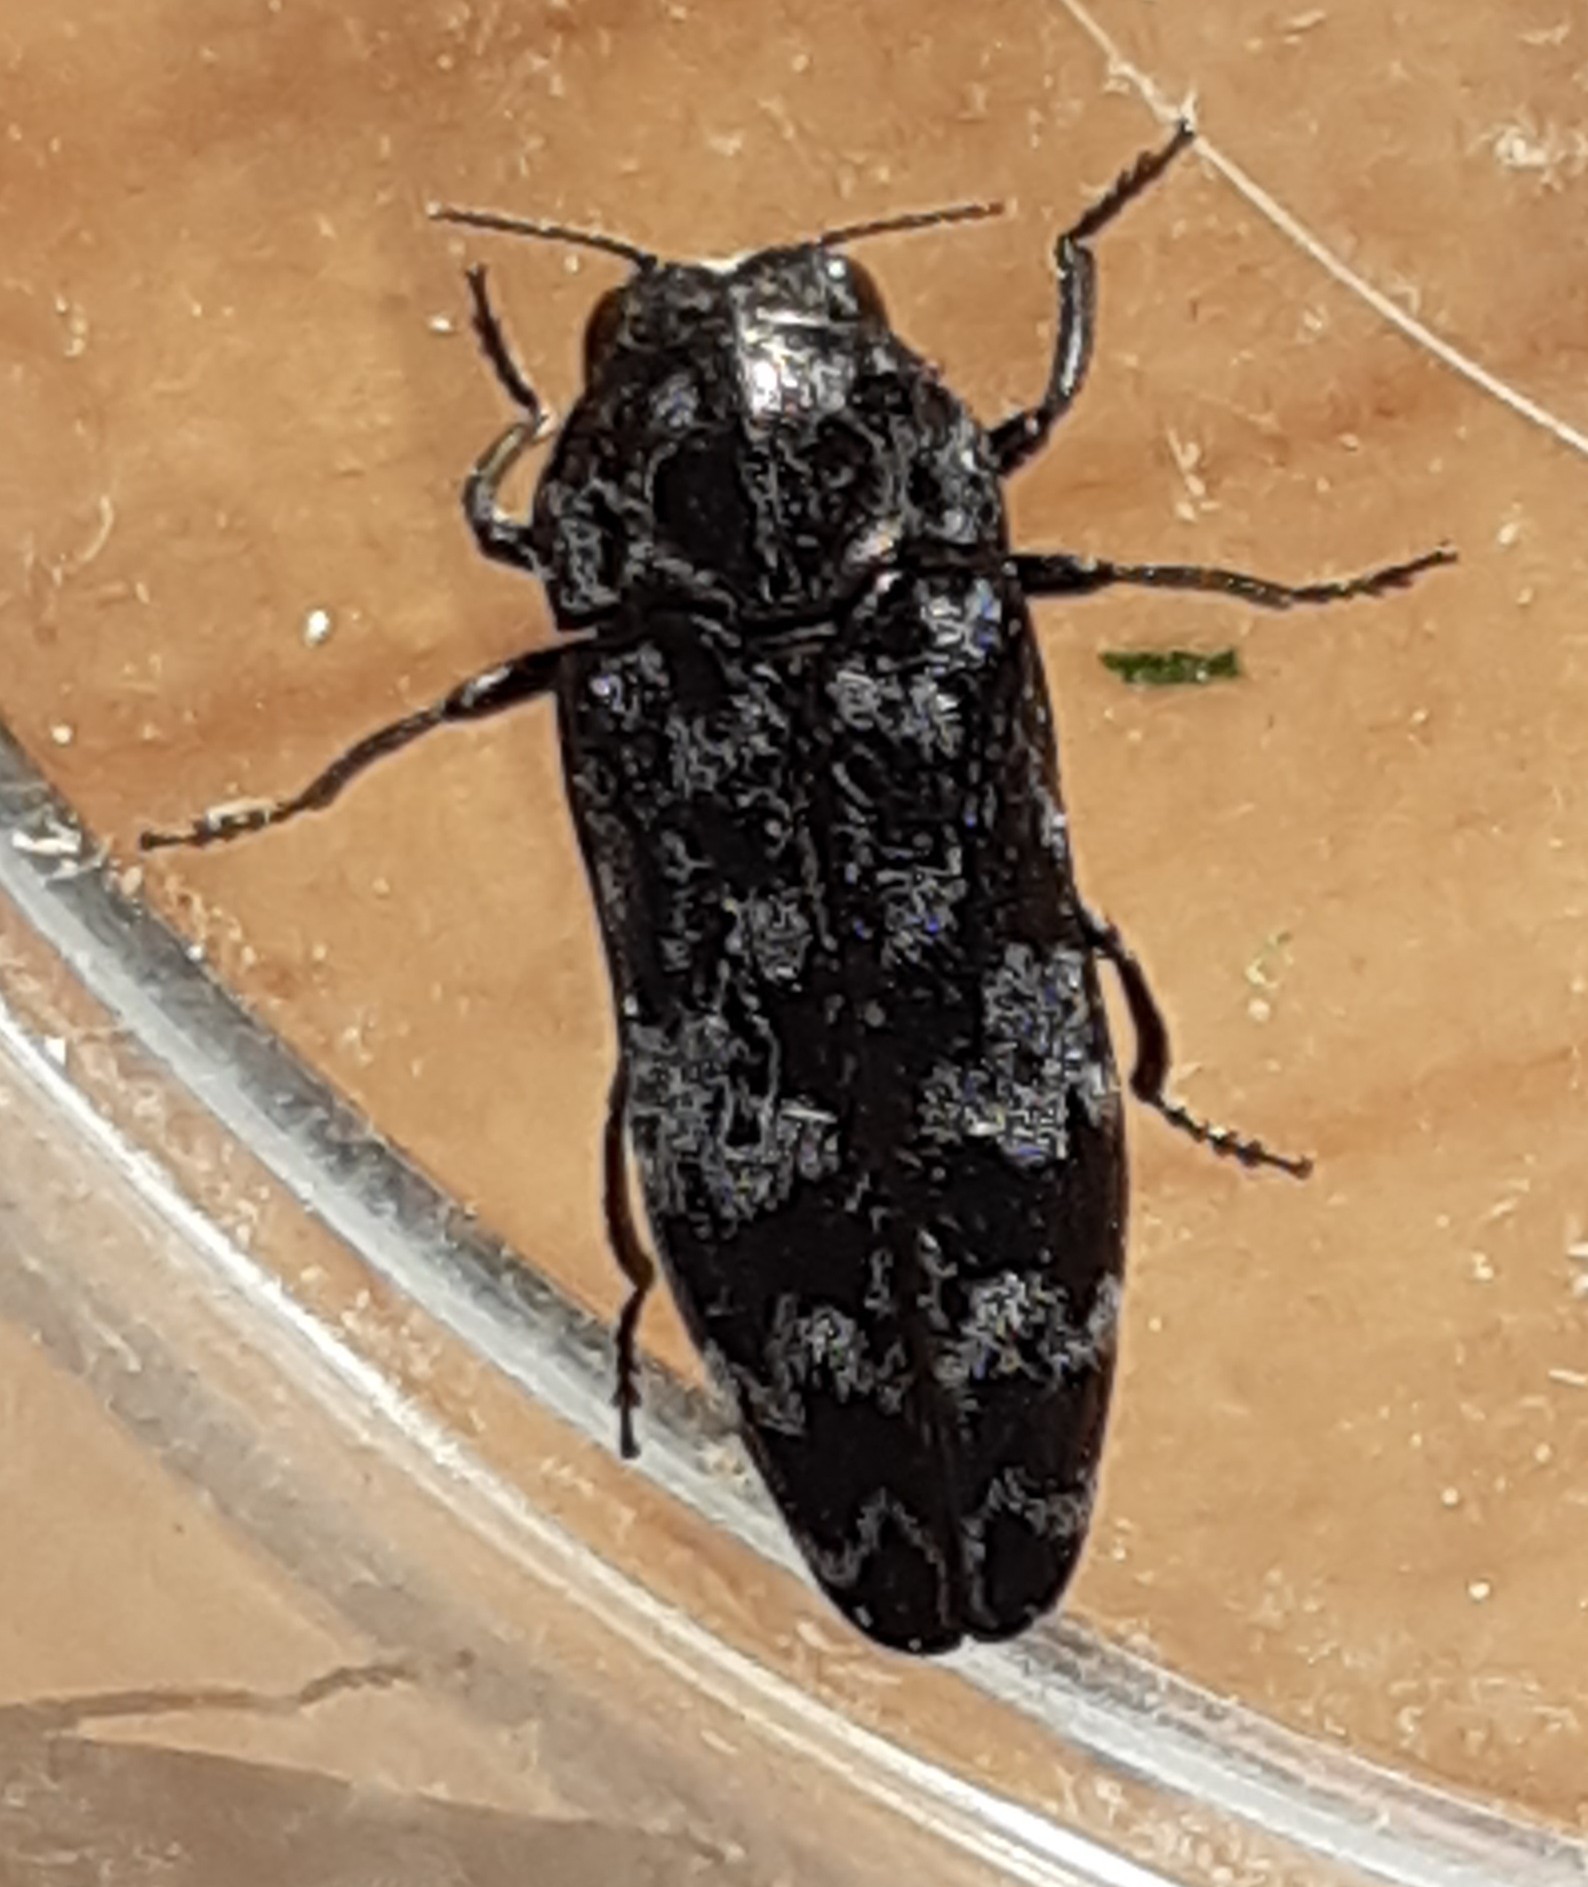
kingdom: Animalia
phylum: Arthropoda
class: Insecta
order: Coleoptera
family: Buprestidae
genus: Coraebus
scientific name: Coraebus rubi
